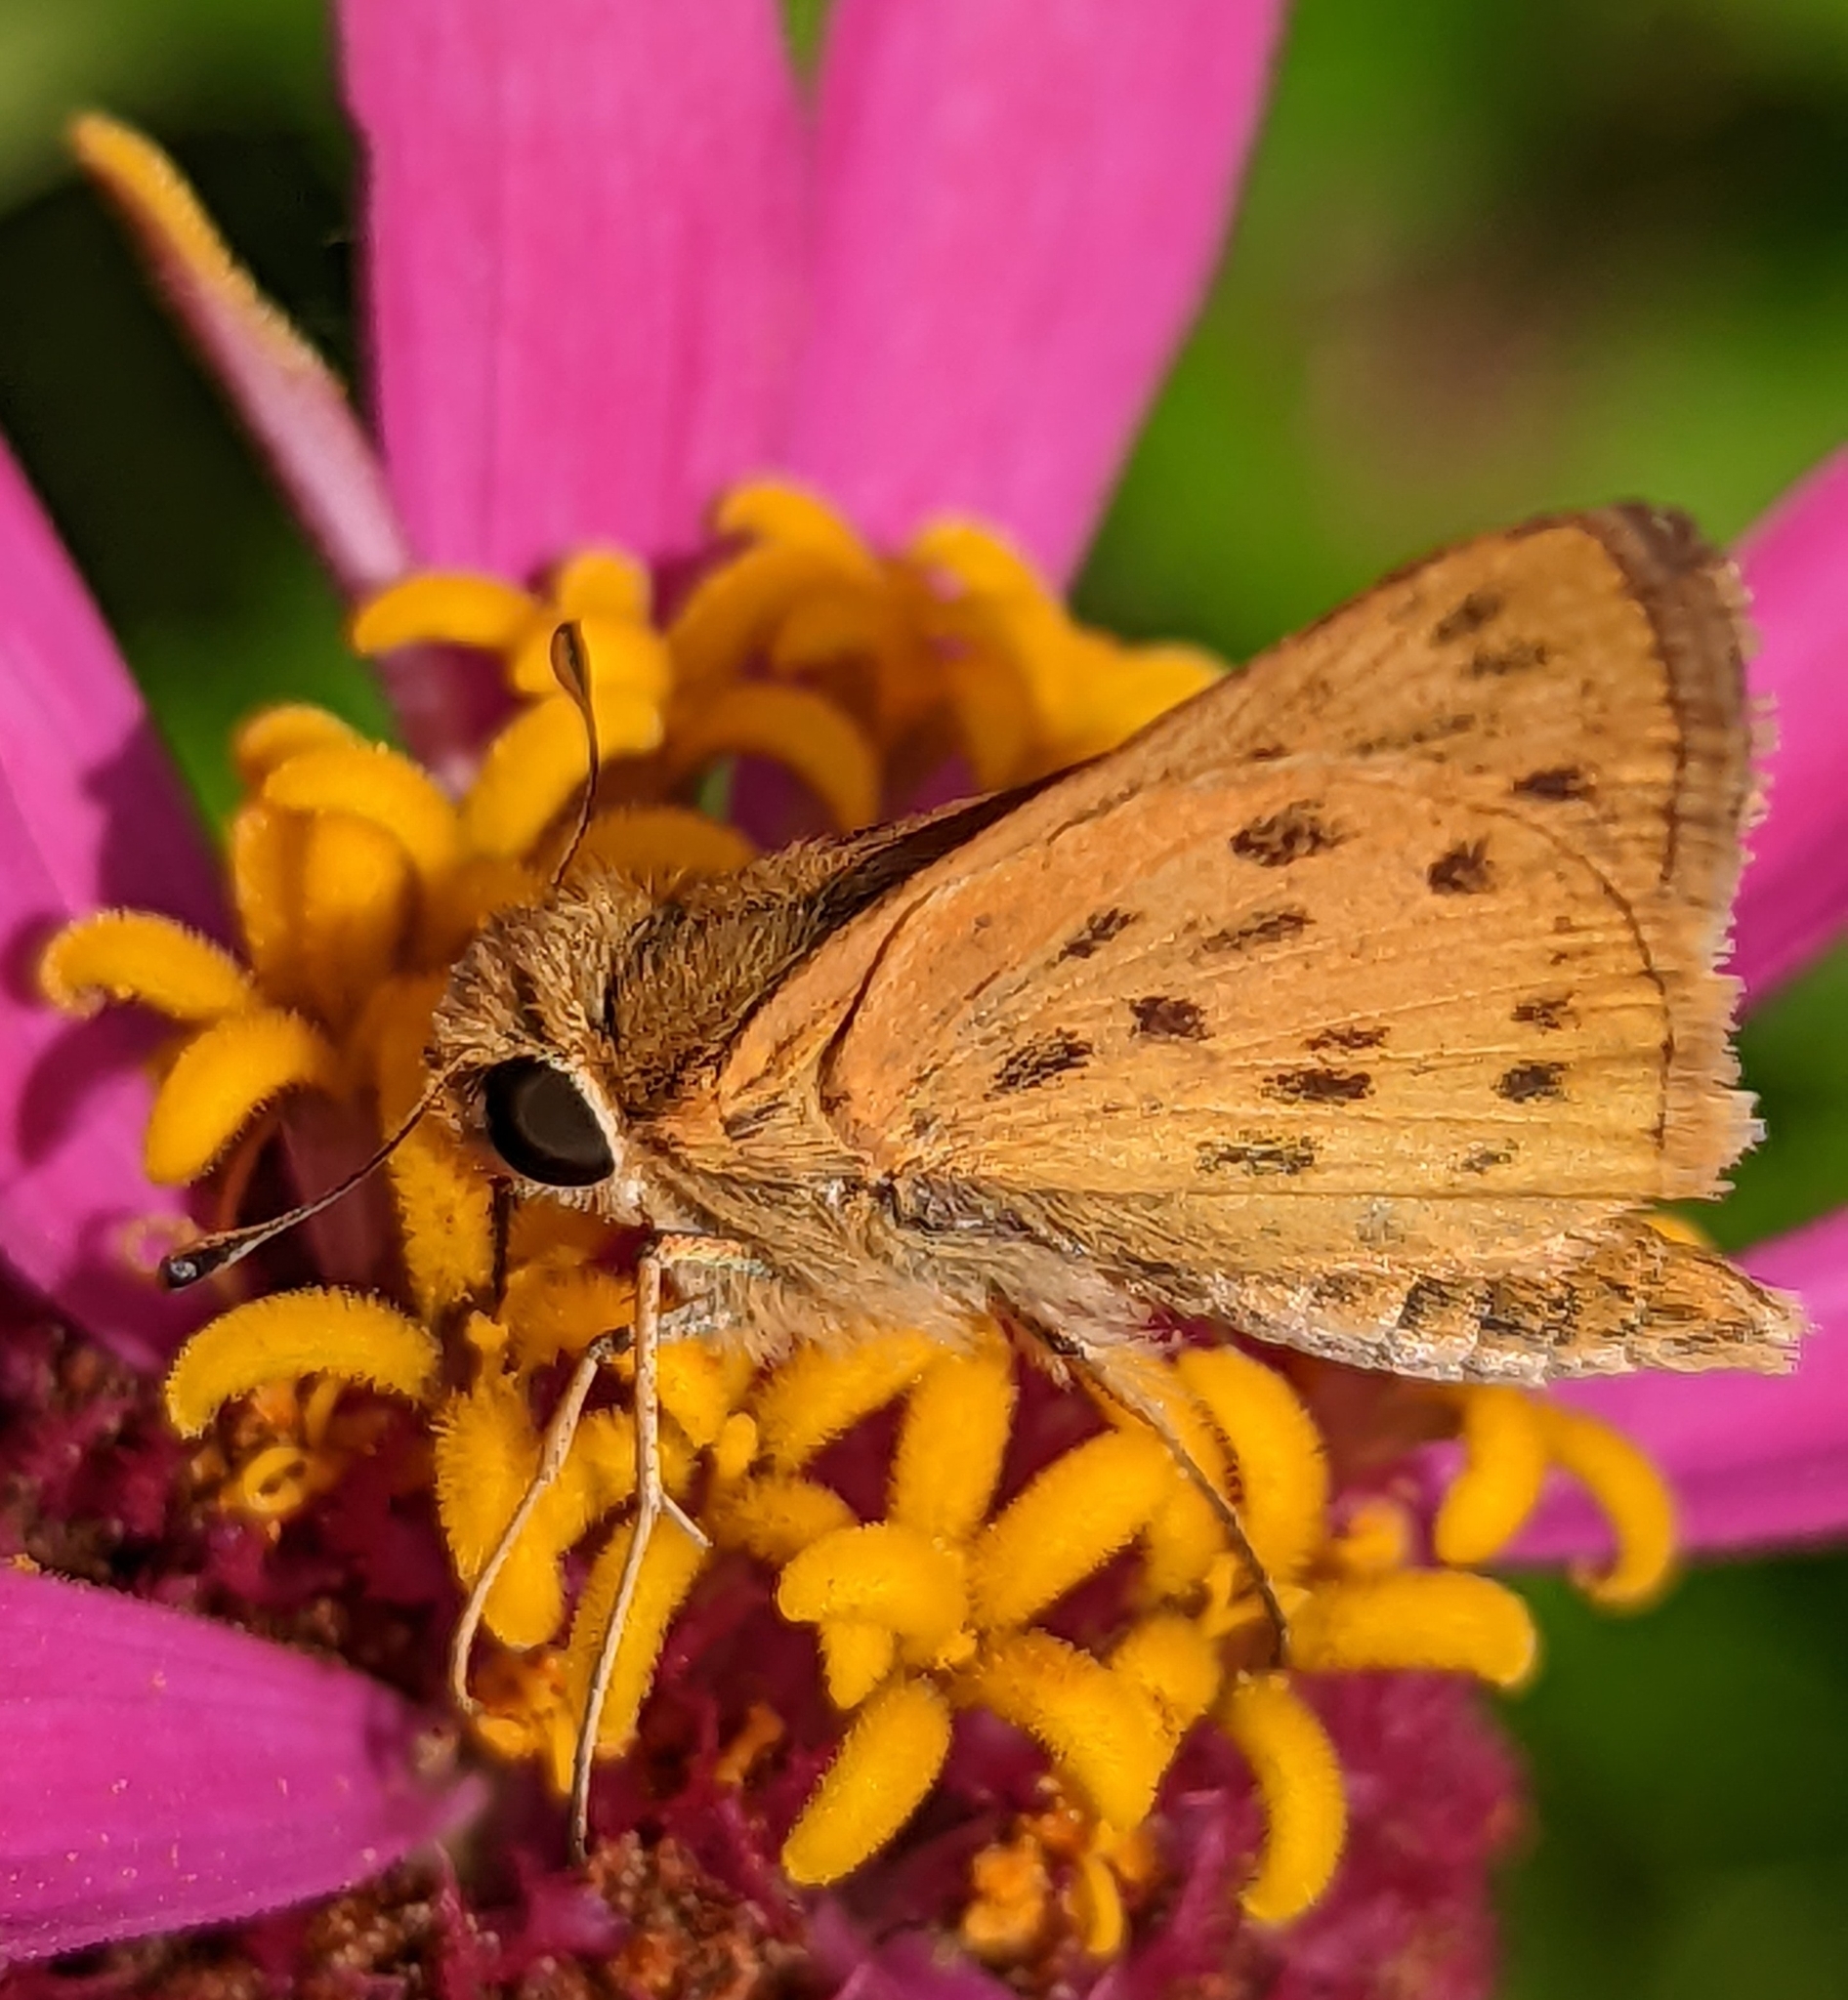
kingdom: Animalia
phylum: Arthropoda
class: Insecta
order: Lepidoptera
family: Hesperiidae
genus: Hylephila
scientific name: Hylephila phyleus
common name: Fiery skipper
